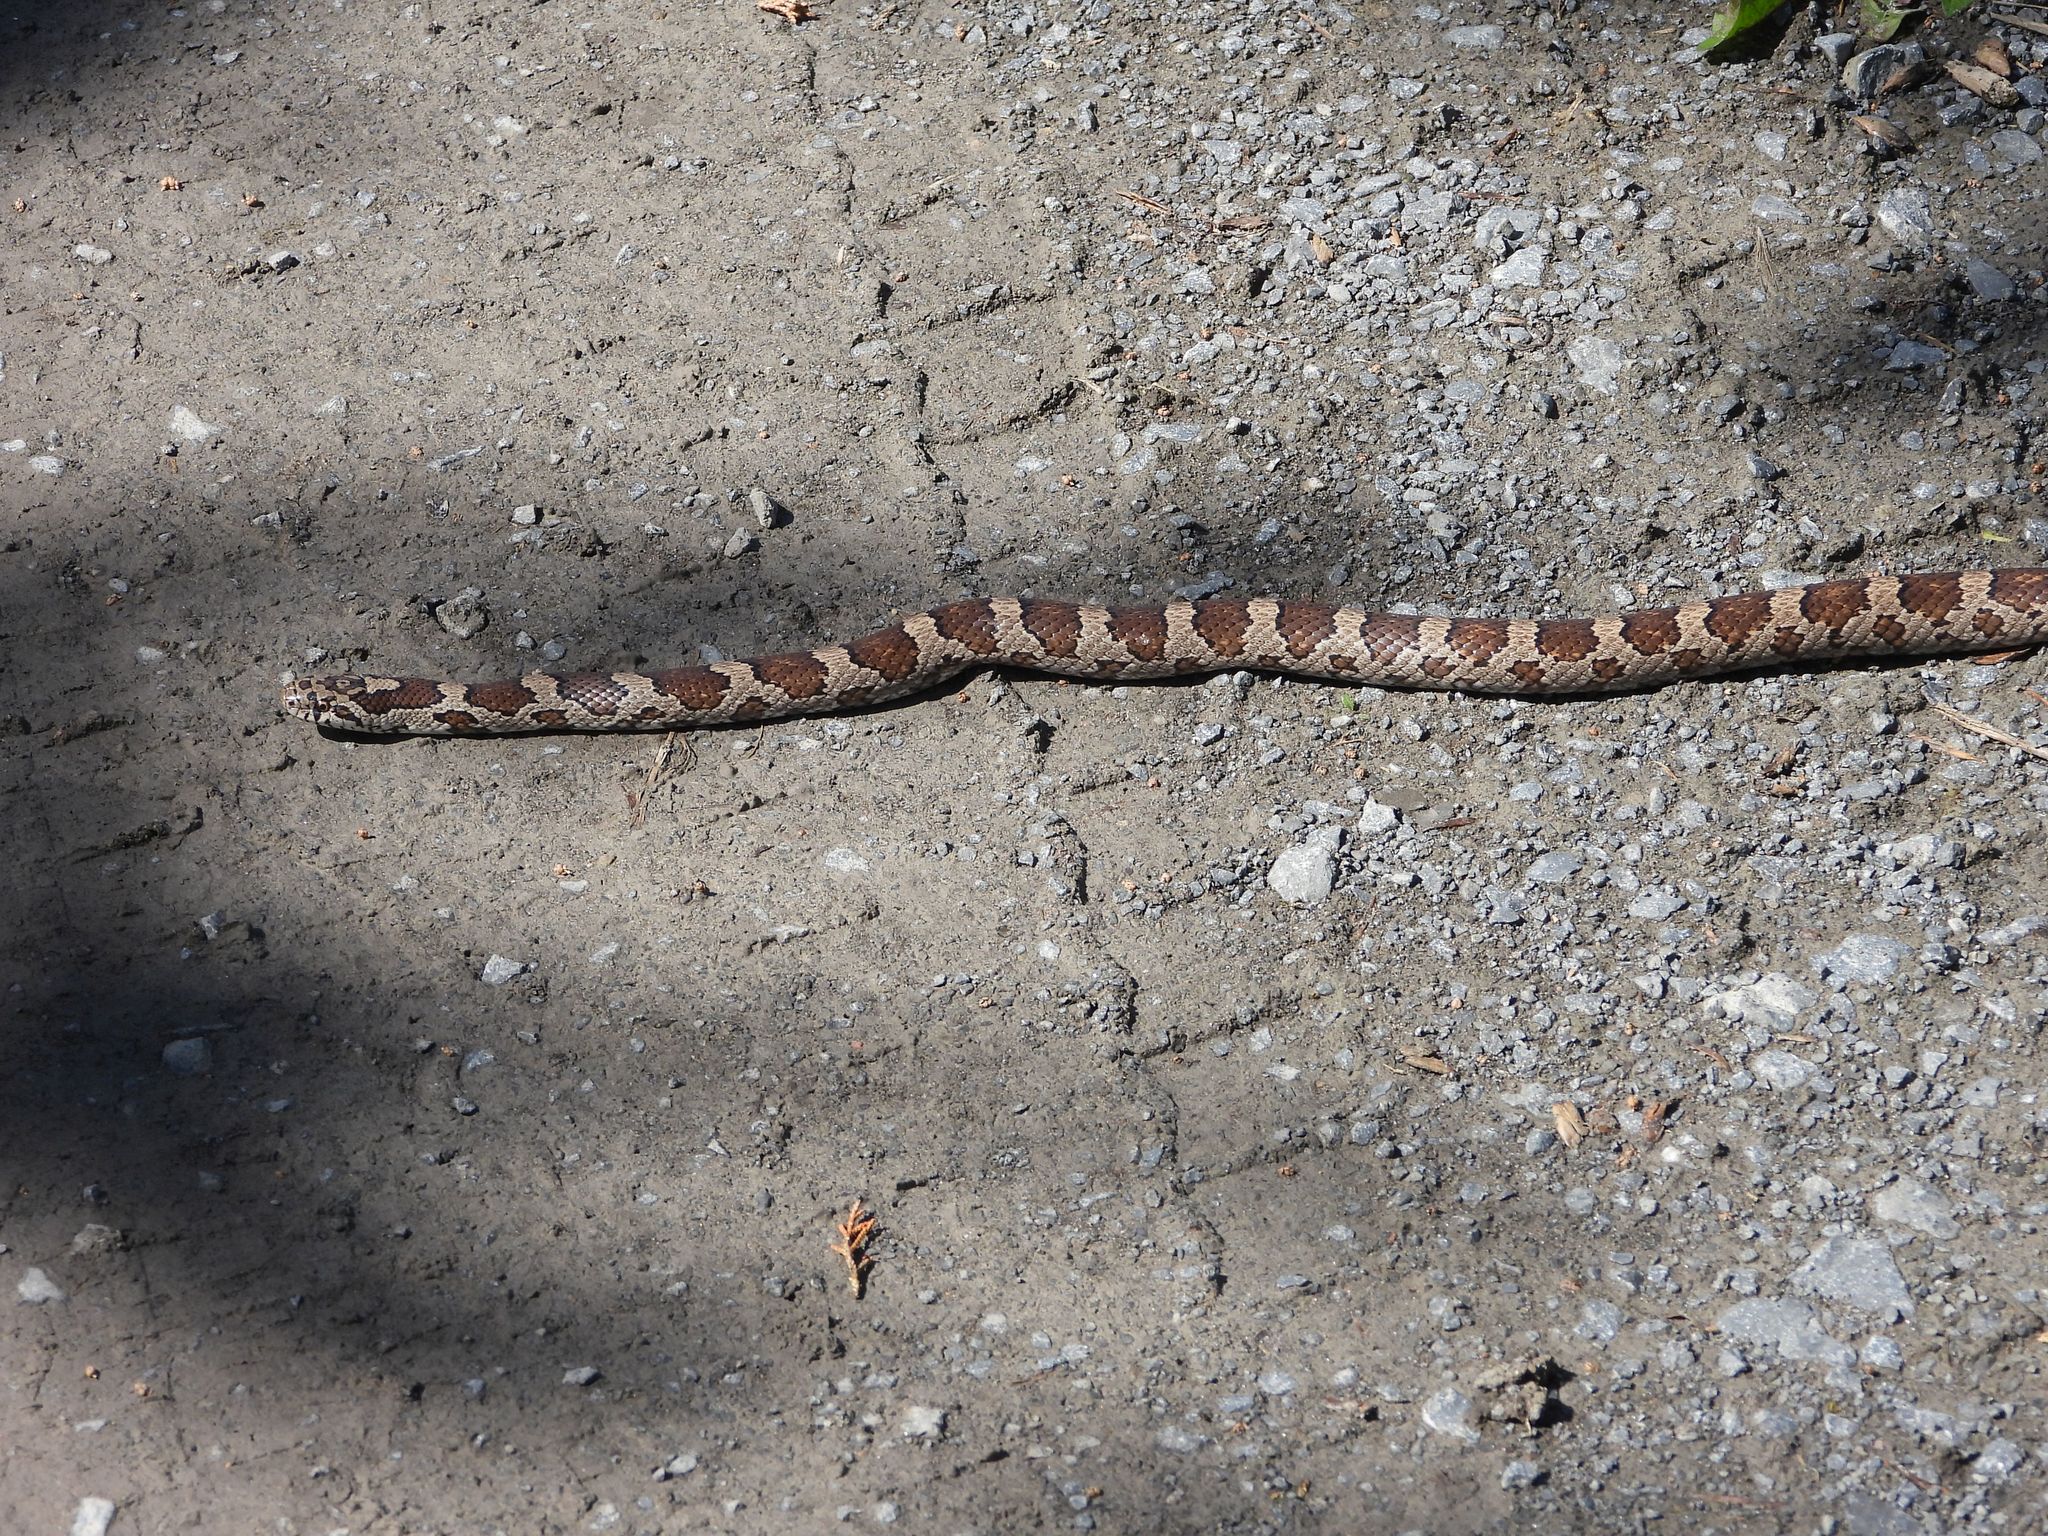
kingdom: Animalia
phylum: Chordata
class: Squamata
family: Colubridae
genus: Lampropeltis
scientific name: Lampropeltis triangulum
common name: Eastern milksnake
